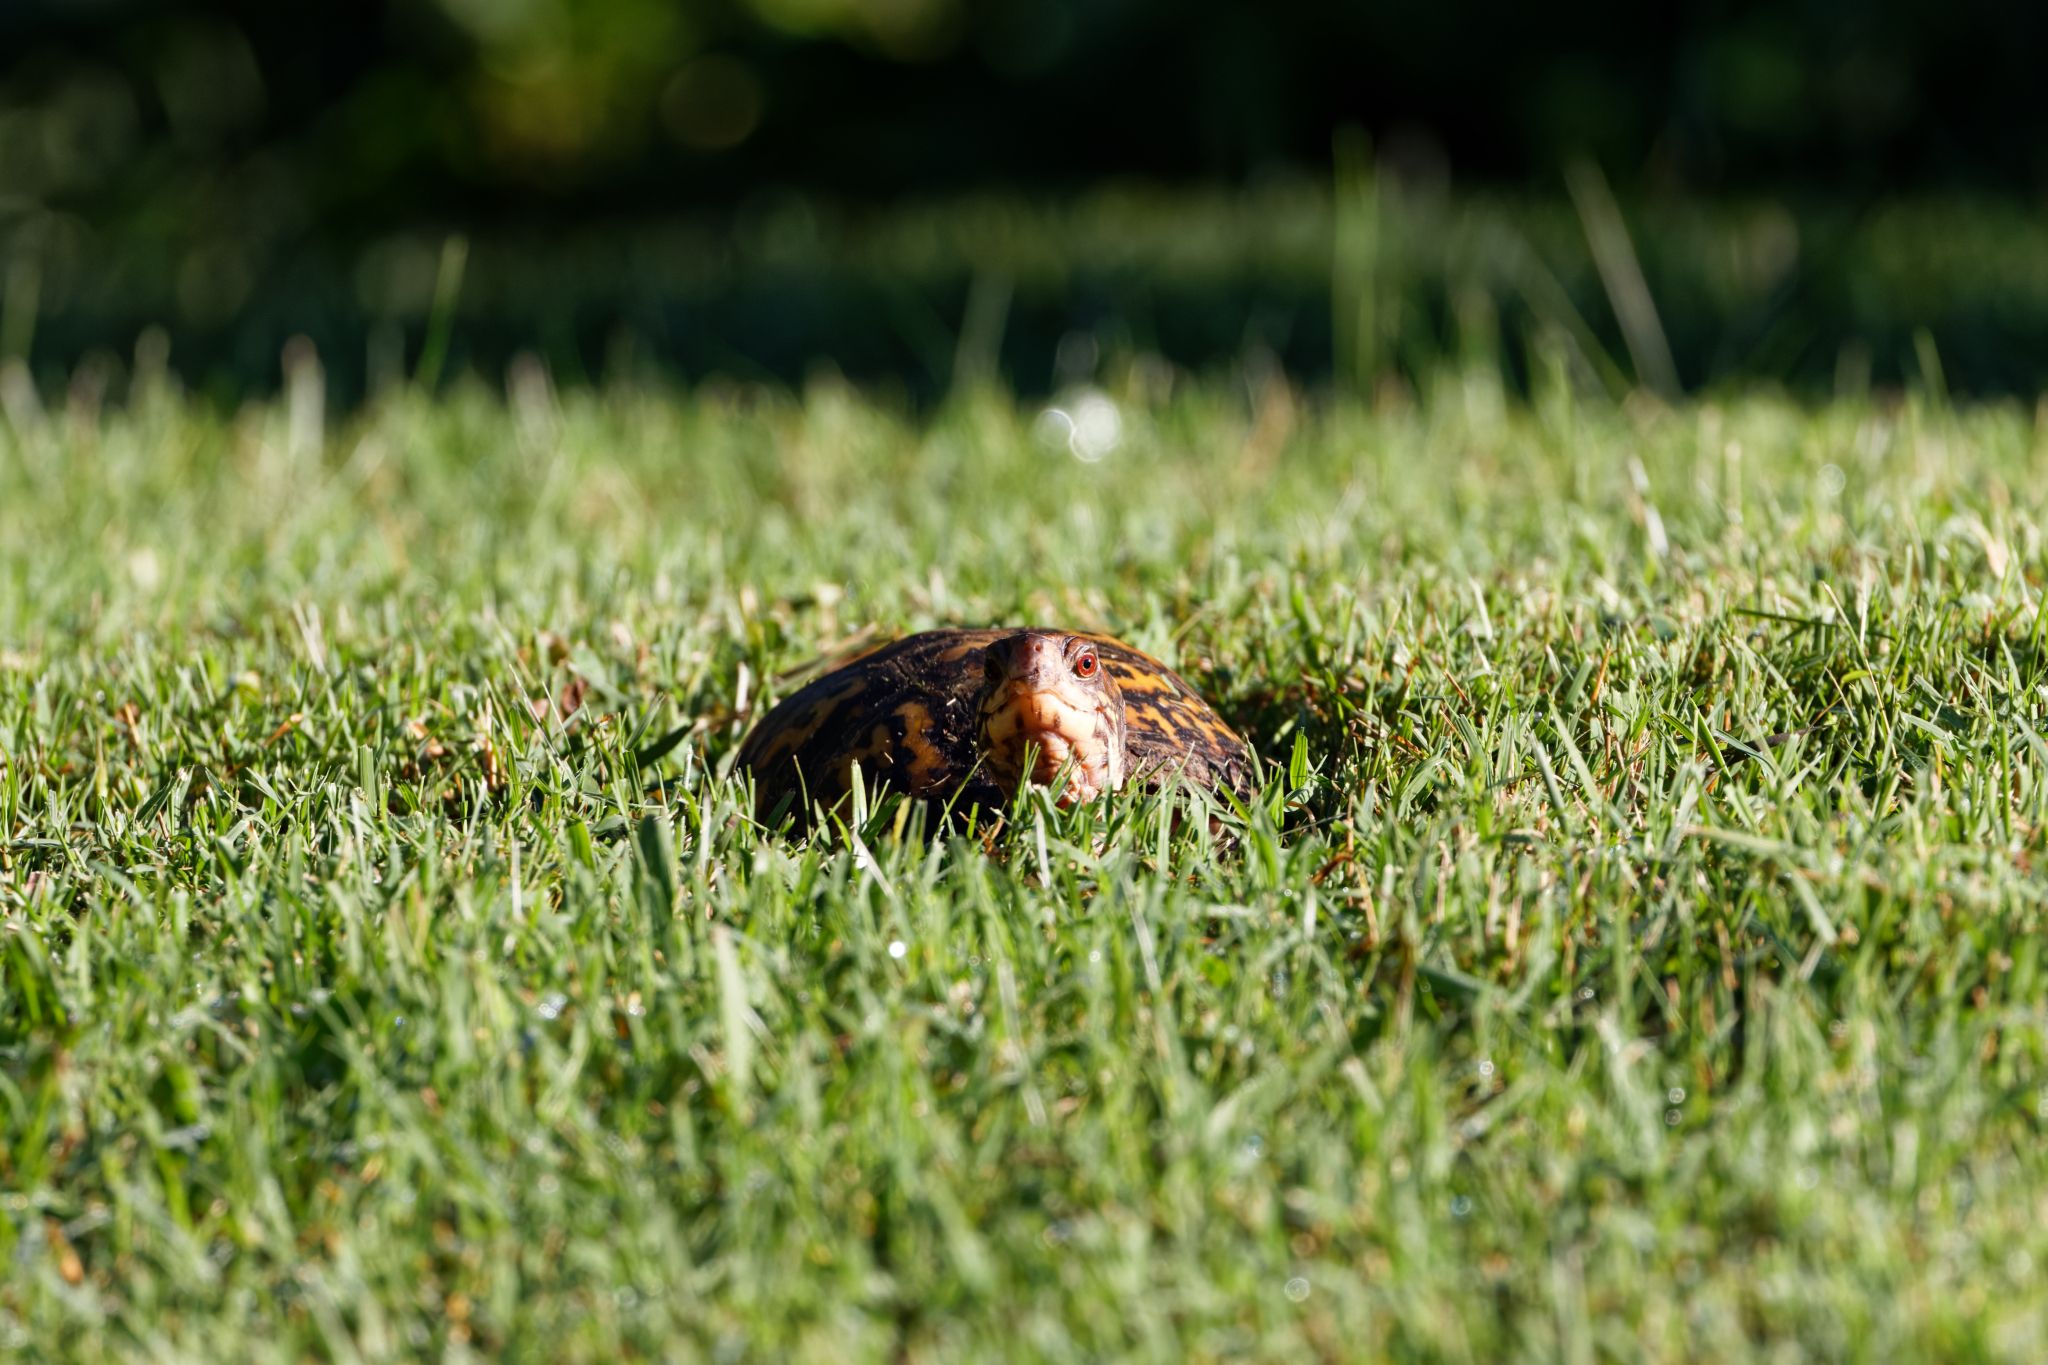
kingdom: Animalia
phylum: Chordata
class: Testudines
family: Emydidae
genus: Terrapene
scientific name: Terrapene carolina
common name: Common box turtle
